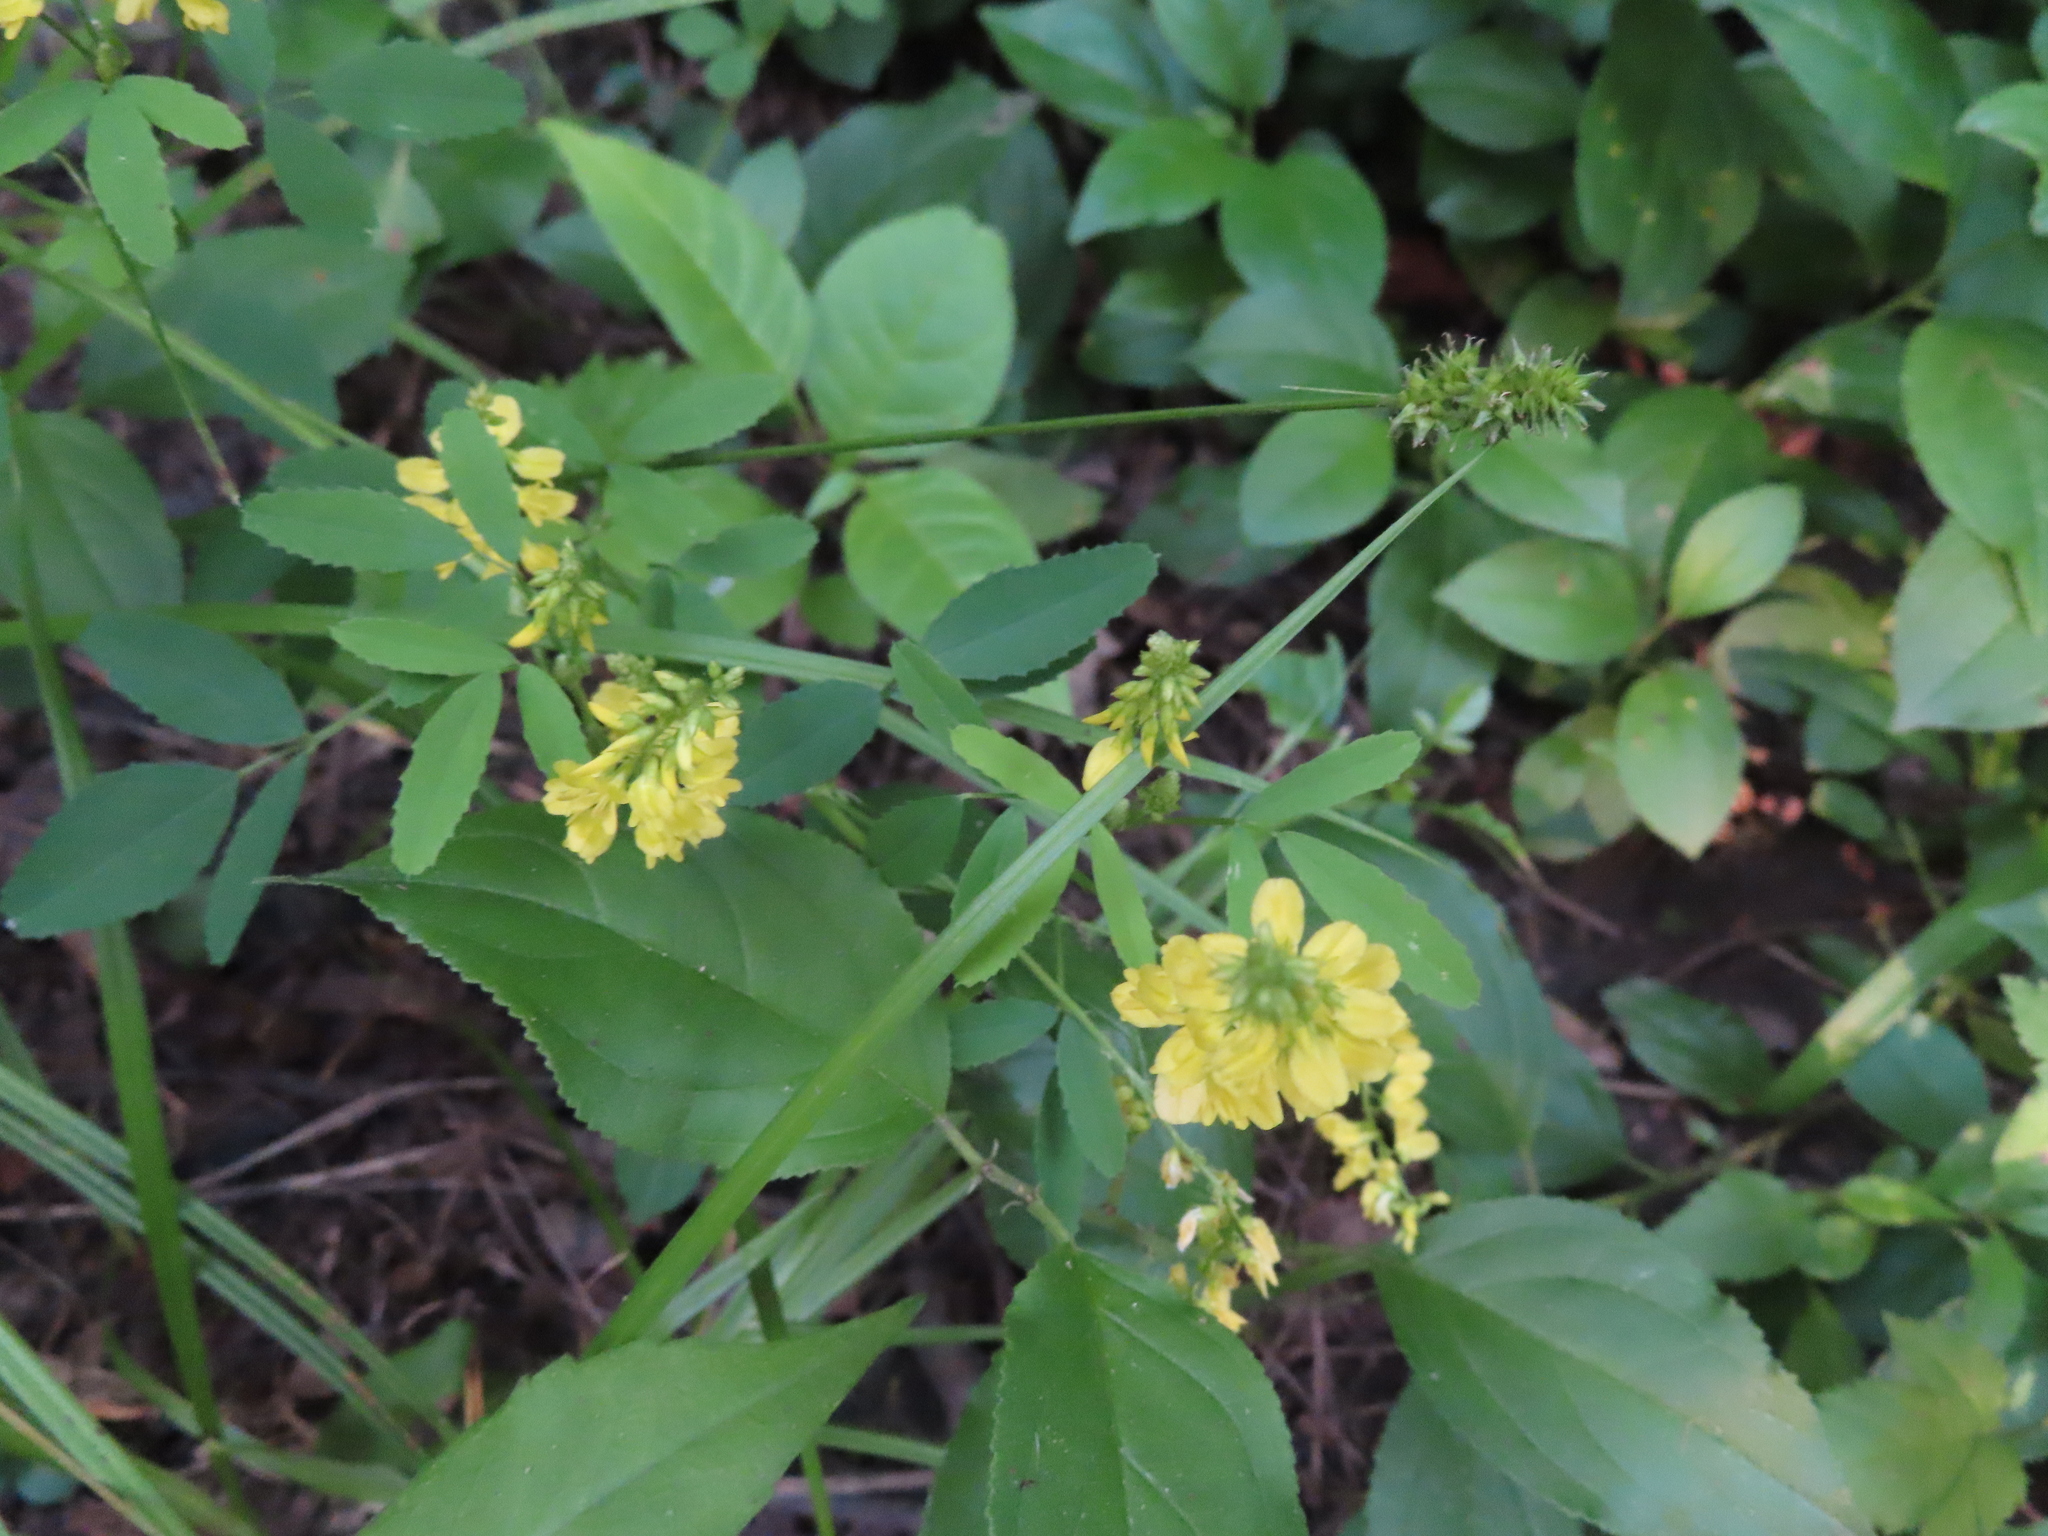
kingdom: Plantae
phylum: Tracheophyta
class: Magnoliopsida
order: Fabales
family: Fabaceae
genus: Melilotus
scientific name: Melilotus officinalis
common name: Sweetclover
